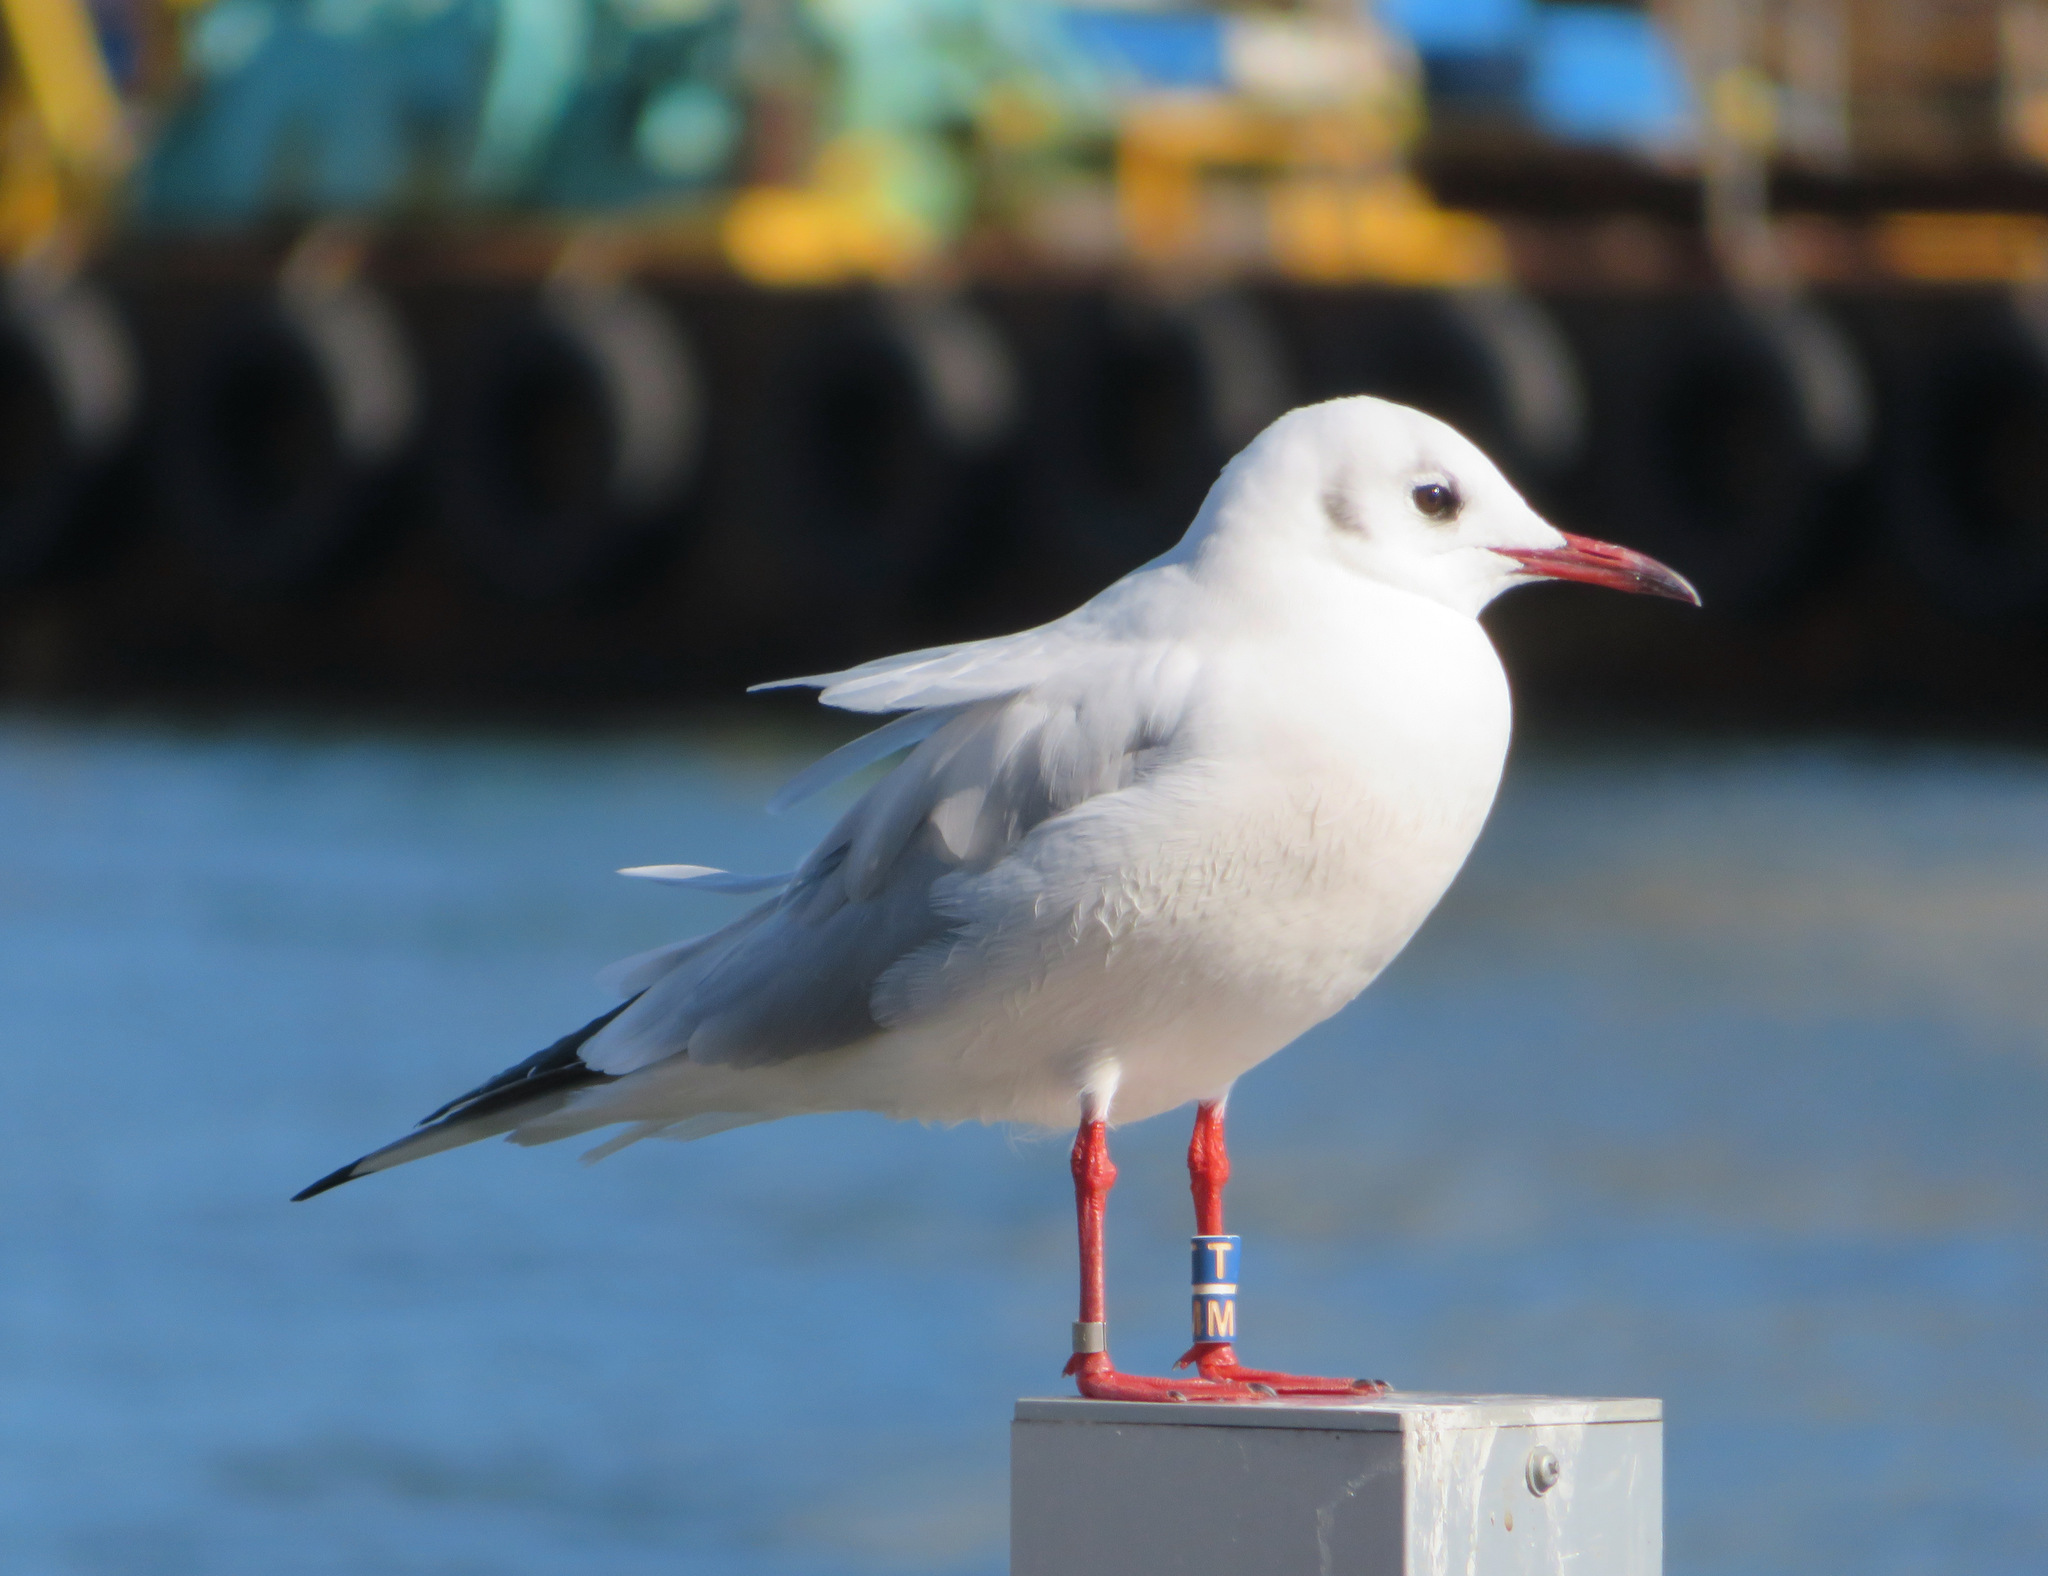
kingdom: Animalia
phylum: Chordata
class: Aves
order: Charadriiformes
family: Laridae
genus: Chroicocephalus
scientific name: Chroicocephalus ridibundus
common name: Black-headed gull
